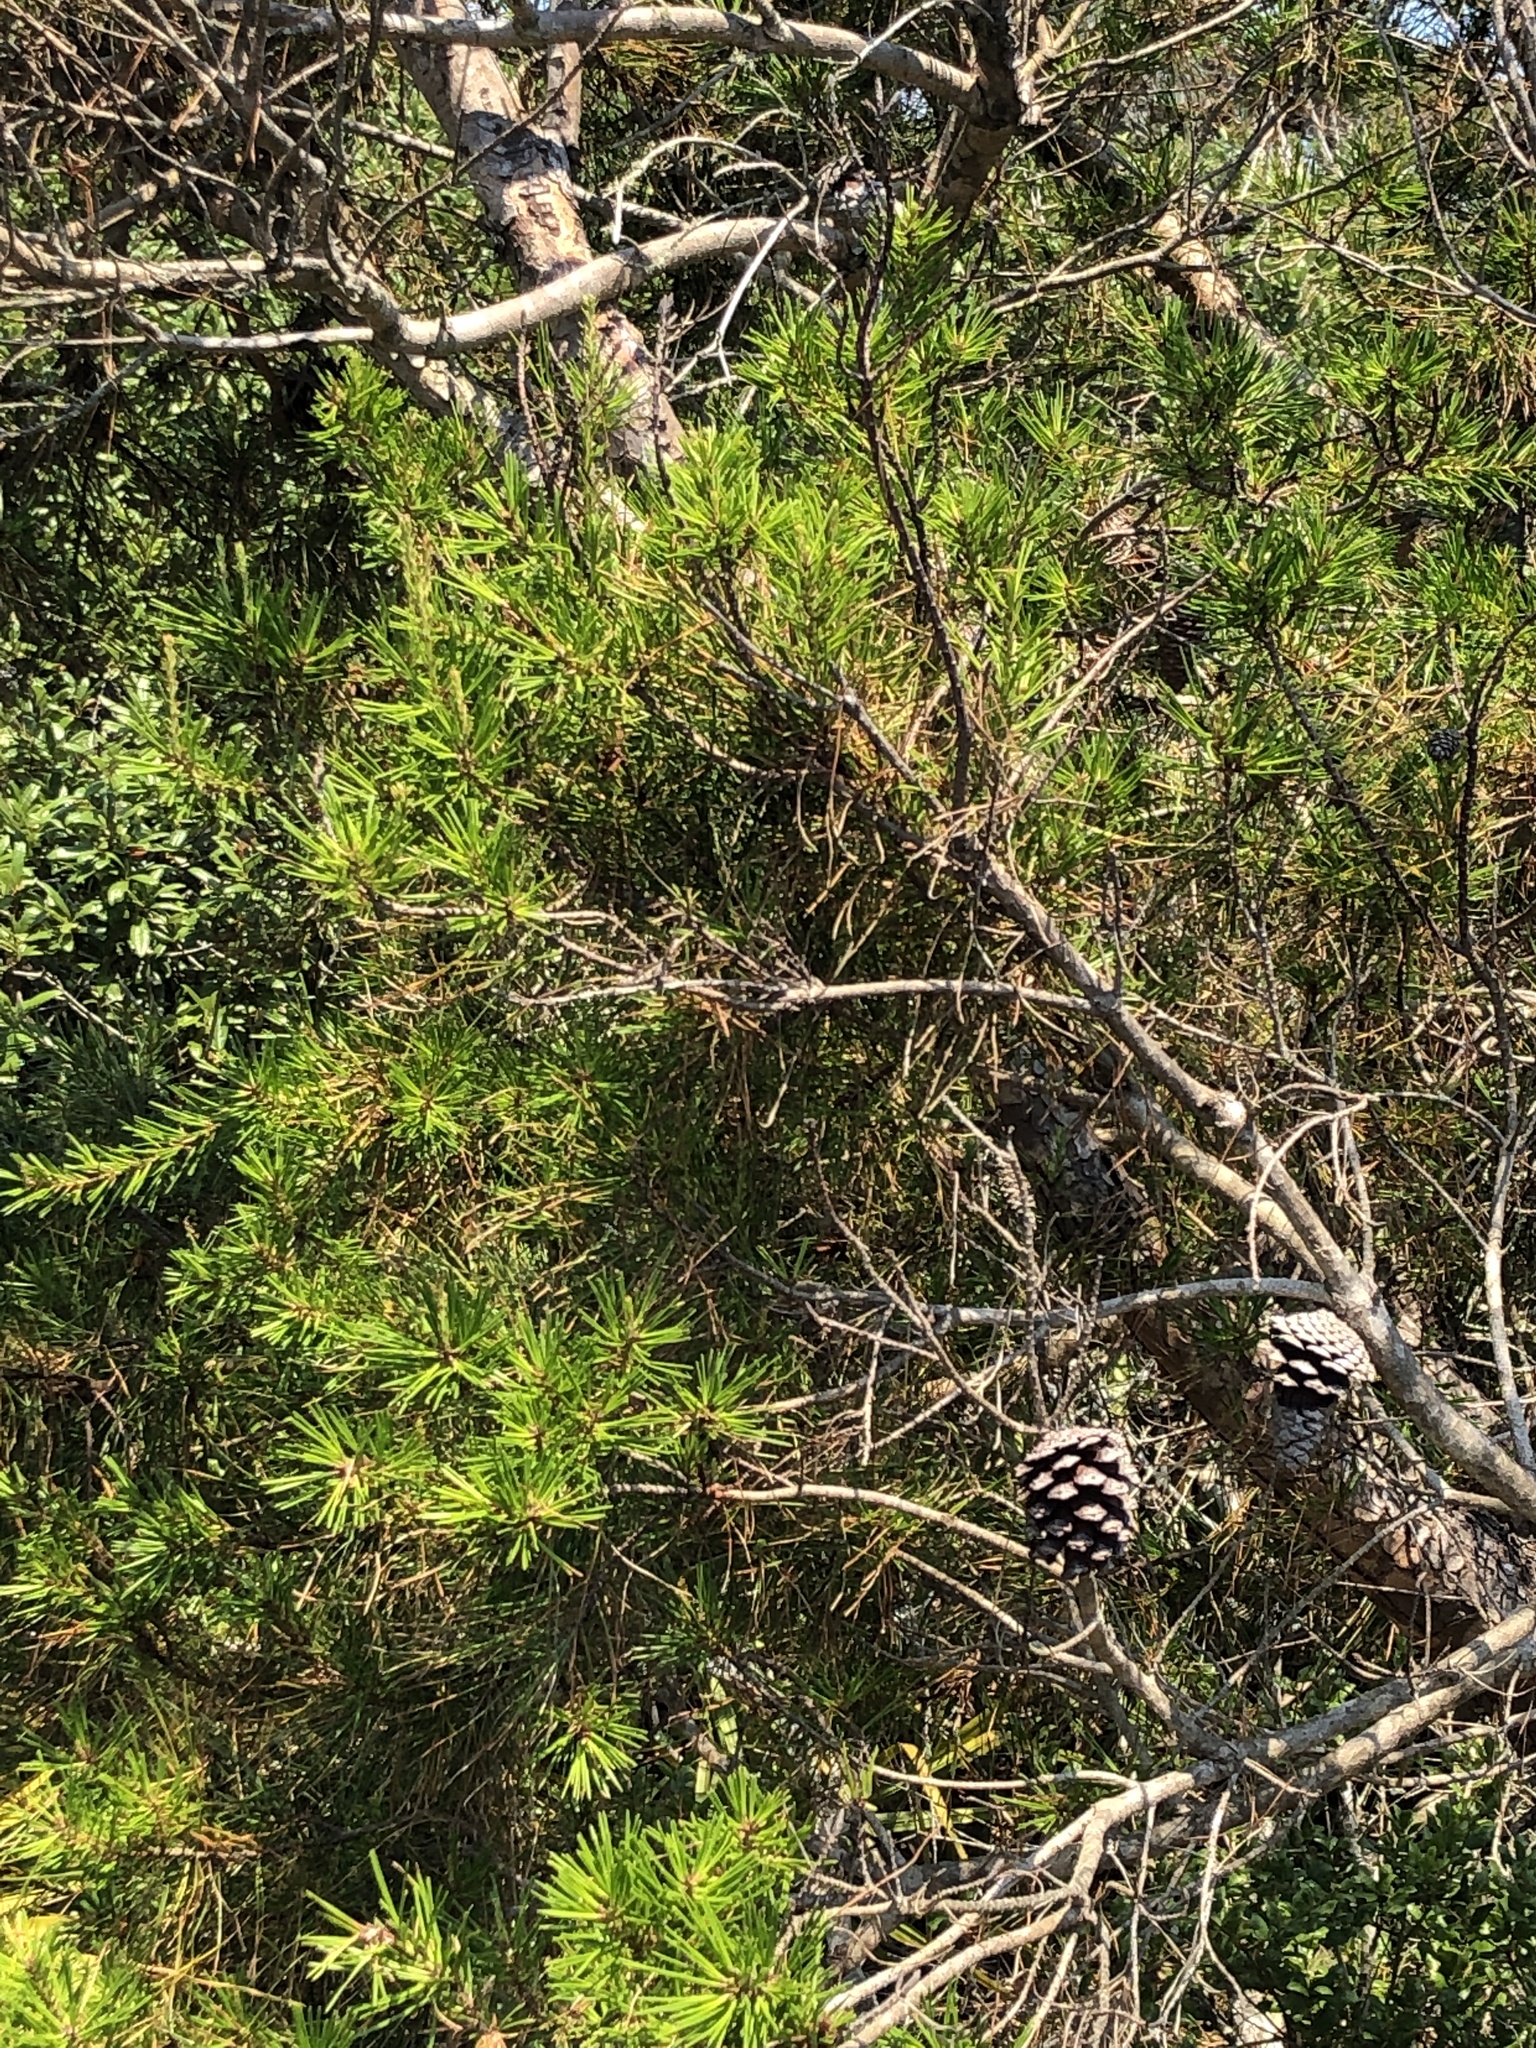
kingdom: Plantae
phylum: Tracheophyta
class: Pinopsida
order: Pinales
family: Pinaceae
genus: Pinus
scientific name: Pinus clausa
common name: Sand pine
